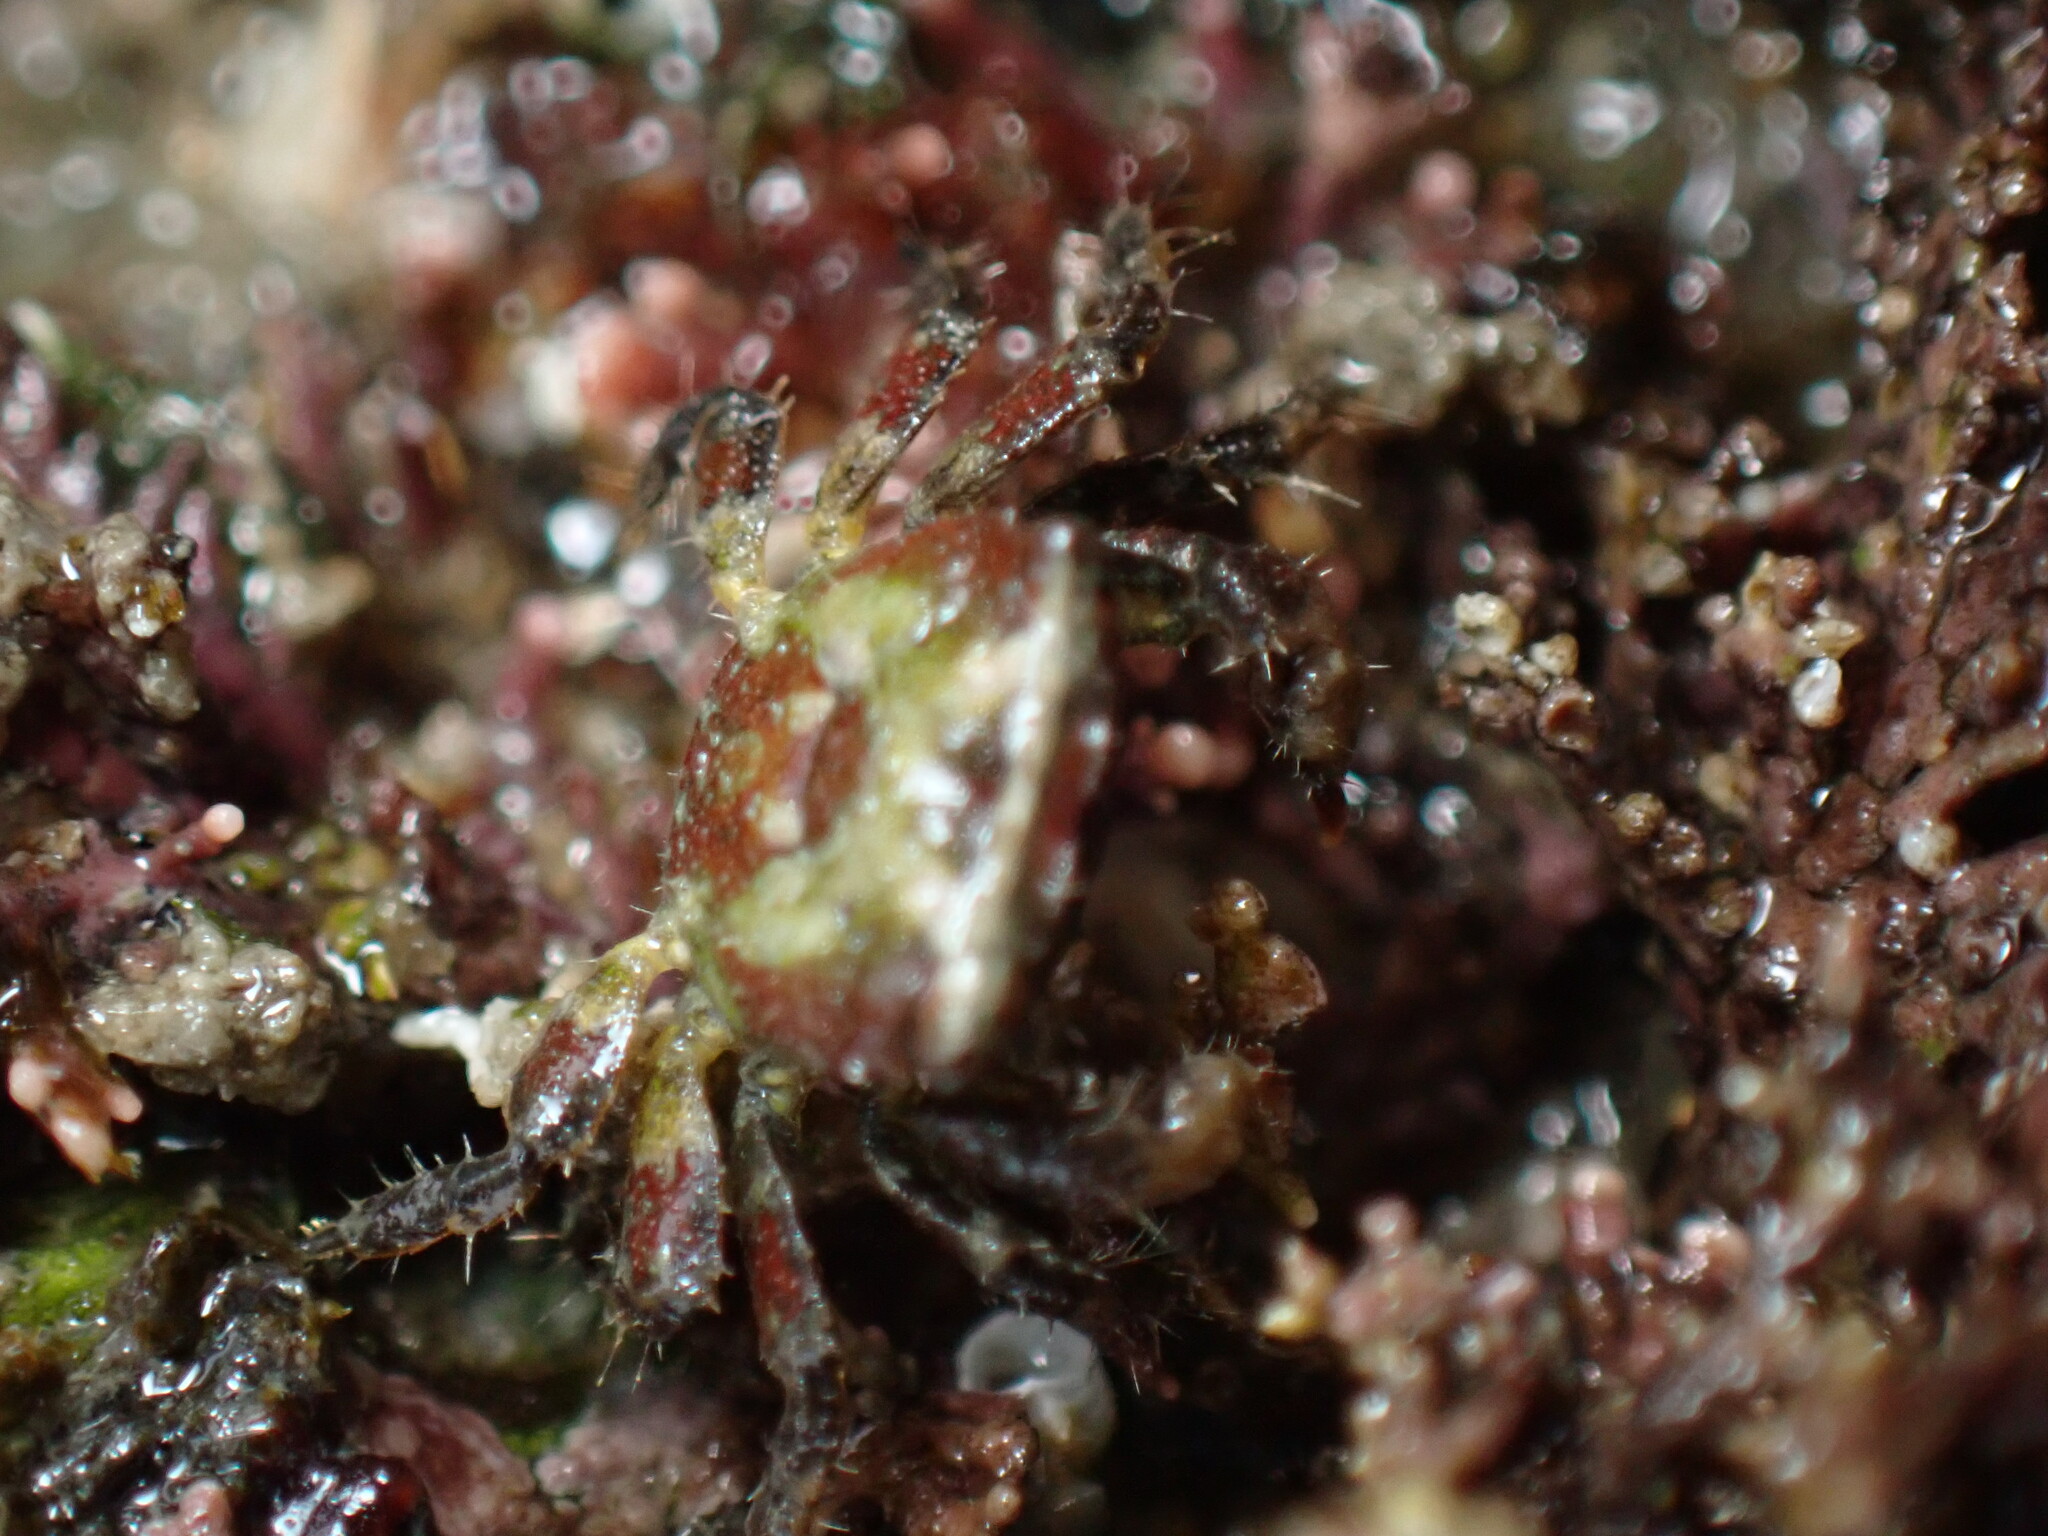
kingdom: Animalia
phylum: Arthropoda
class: Malacostraca
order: Decapoda
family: Sesarmidae
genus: Nanosesarma
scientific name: Nanosesarma minutum
